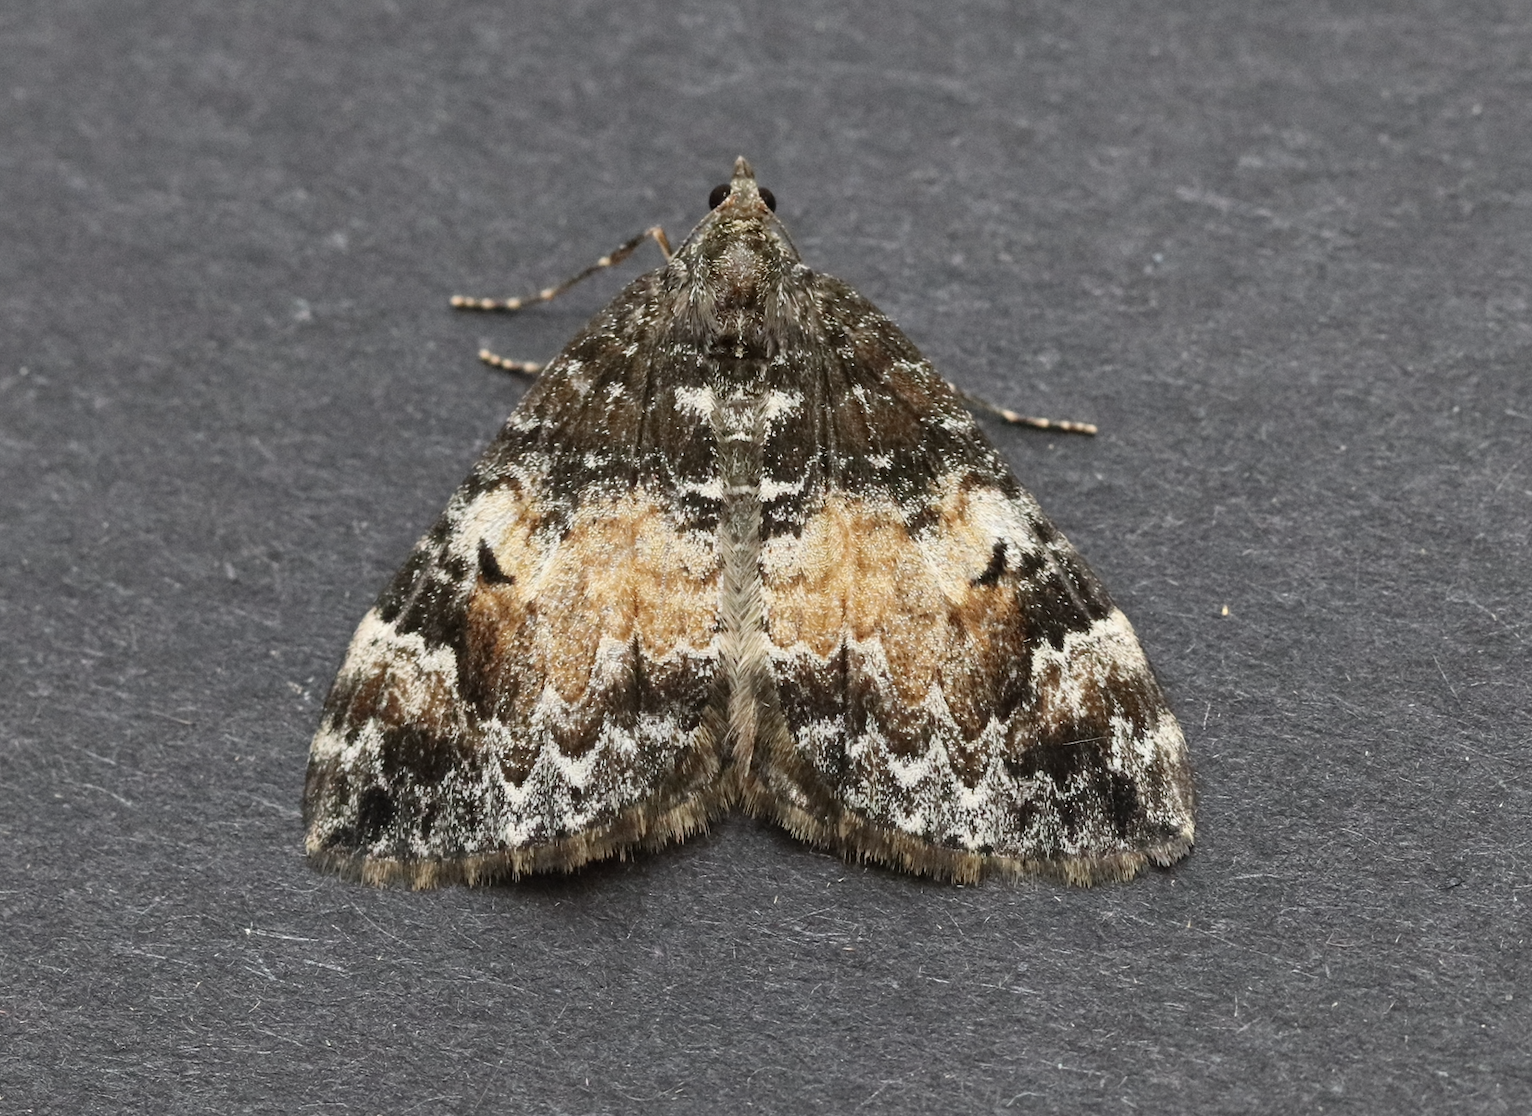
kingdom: Animalia
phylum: Arthropoda
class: Insecta
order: Lepidoptera
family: Geometridae
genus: Dysstroma
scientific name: Dysstroma truncata
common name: Common marbled carpet
